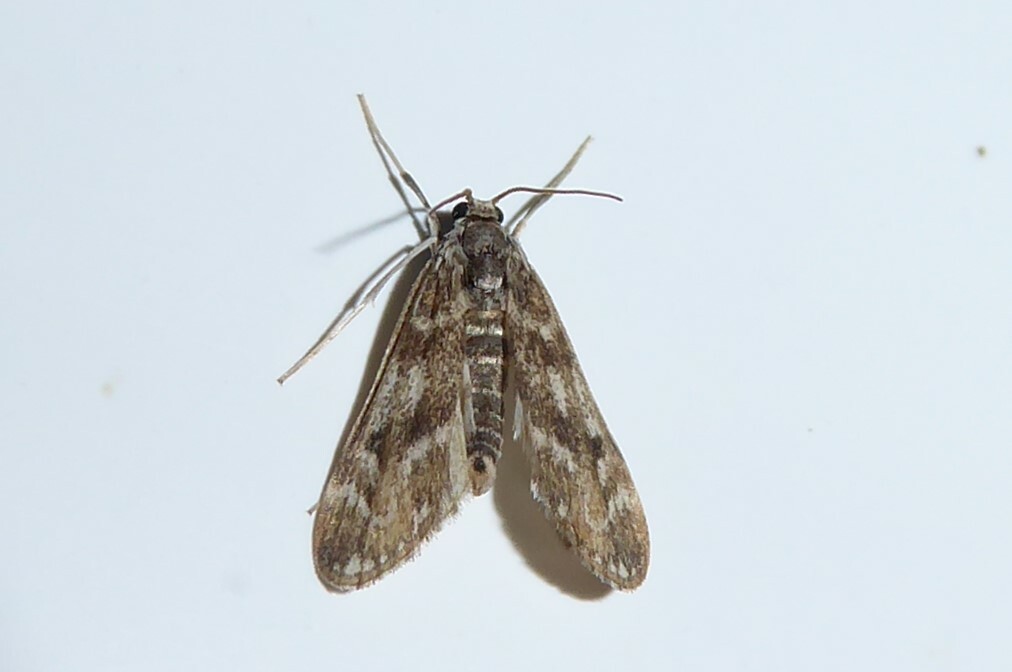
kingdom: Animalia
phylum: Arthropoda
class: Insecta
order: Lepidoptera
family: Crambidae
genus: Hygraula
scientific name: Hygraula nitens
